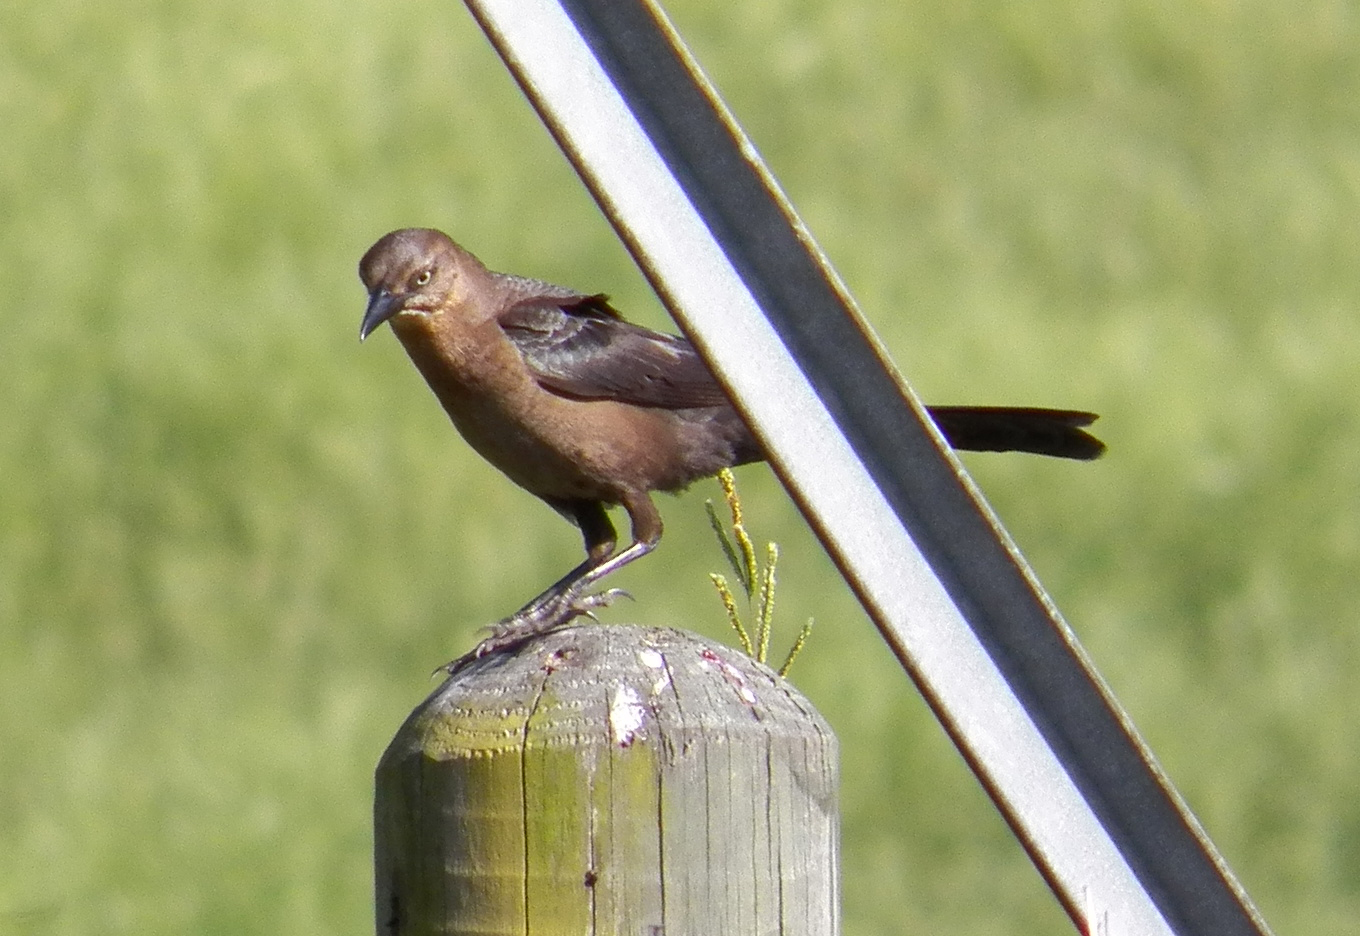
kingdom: Animalia
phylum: Chordata
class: Aves
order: Passeriformes
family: Icteridae
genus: Quiscalus
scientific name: Quiscalus mexicanus
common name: Great-tailed grackle
